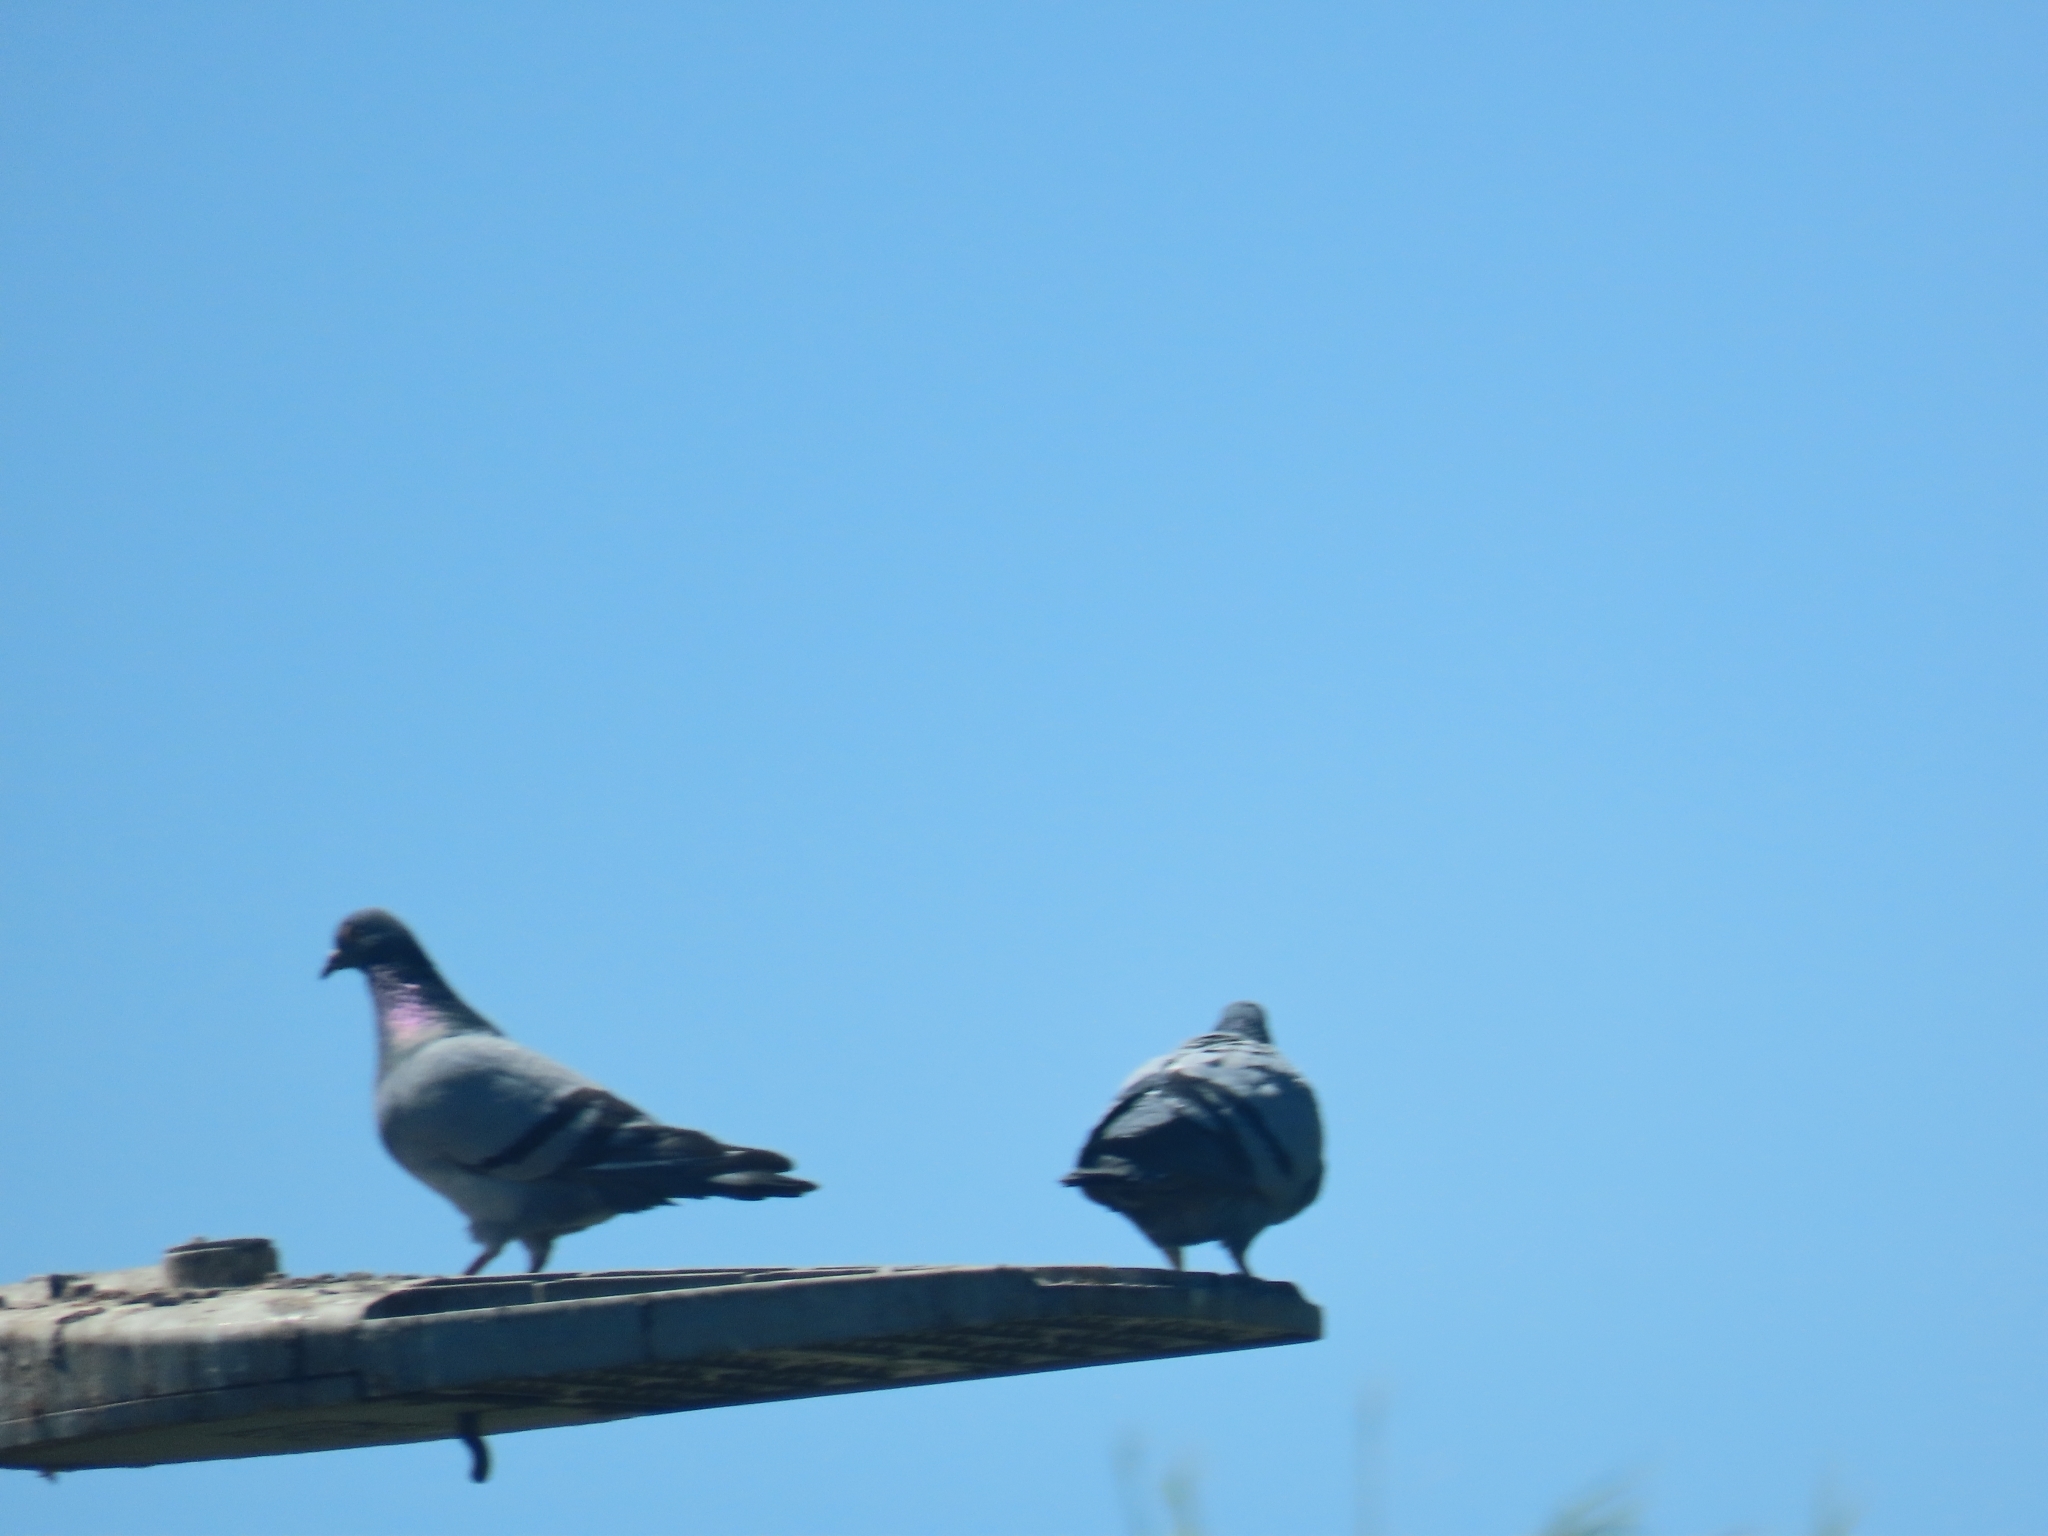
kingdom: Animalia
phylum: Chordata
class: Aves
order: Columbiformes
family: Columbidae
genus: Columba
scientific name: Columba livia
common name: Rock pigeon
